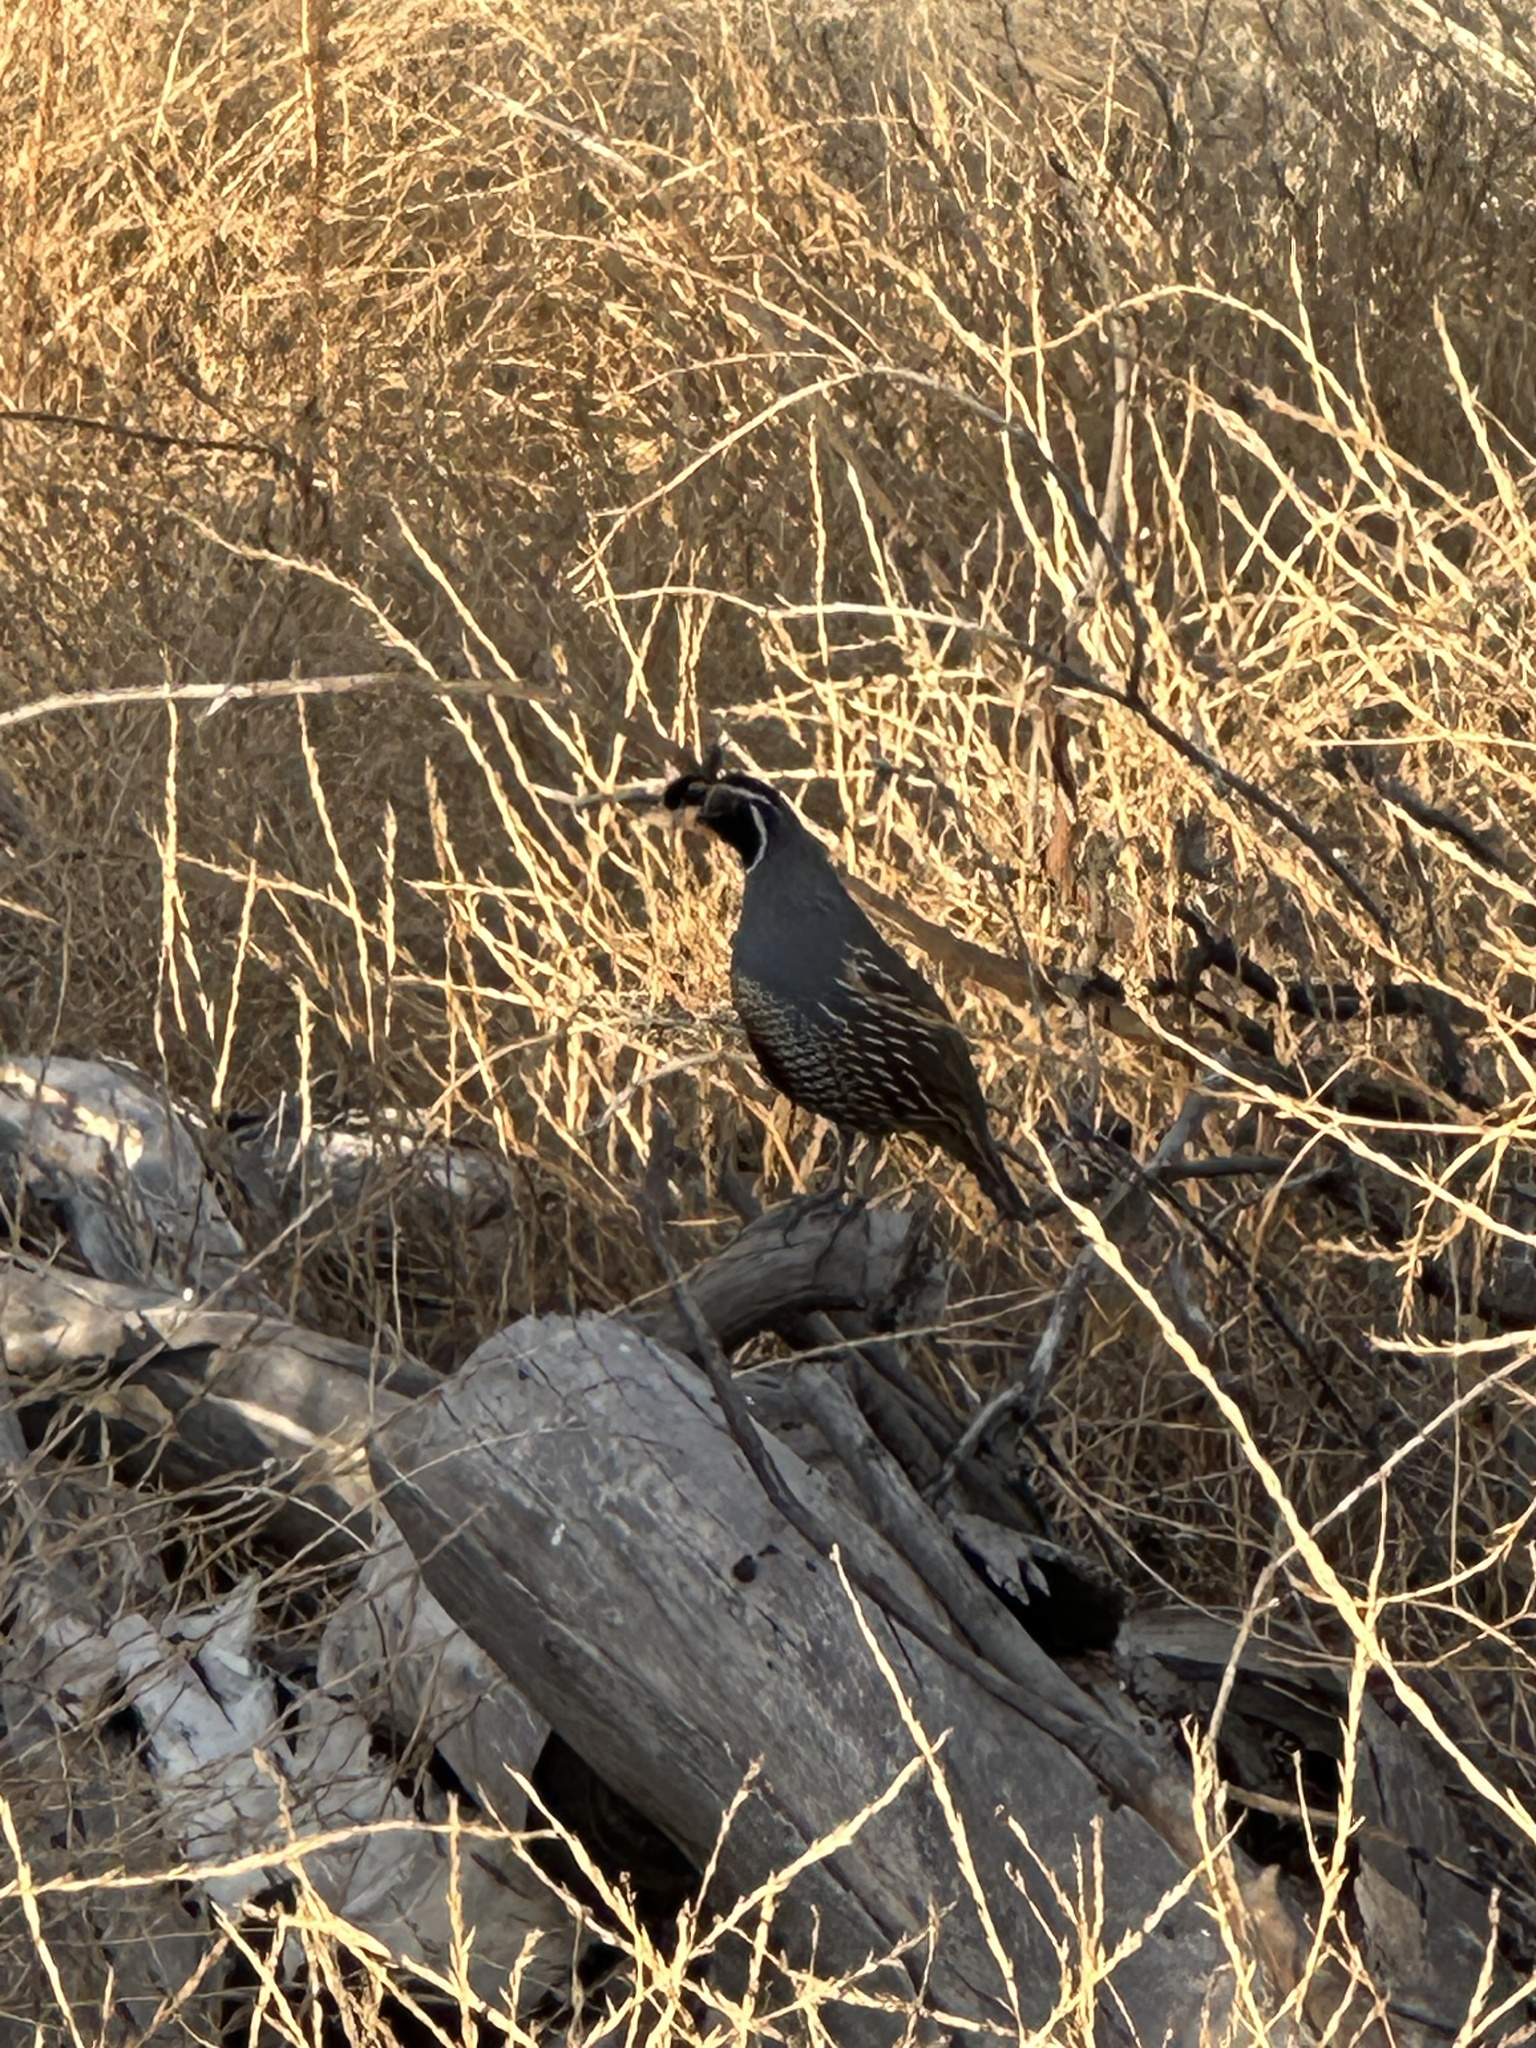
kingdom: Animalia
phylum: Chordata
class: Aves
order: Galliformes
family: Odontophoridae
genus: Callipepla
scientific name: Callipepla californica
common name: California quail
